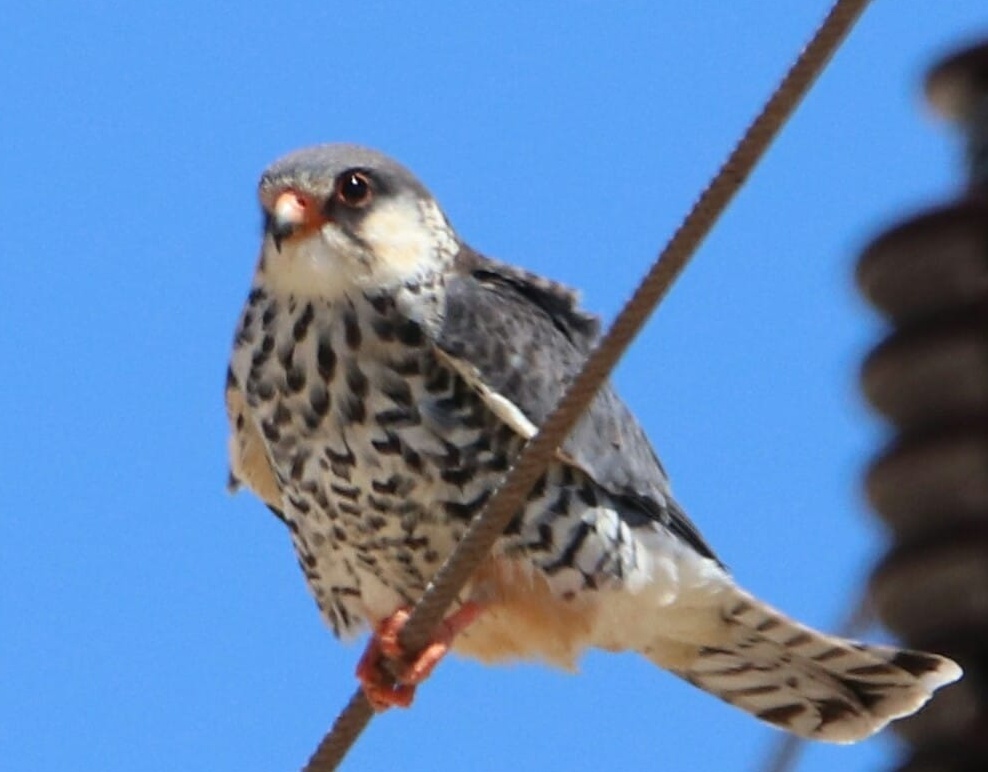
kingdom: Animalia
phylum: Chordata
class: Aves
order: Falconiformes
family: Falconidae
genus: Falco
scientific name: Falco amurensis
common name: Amur falcon
